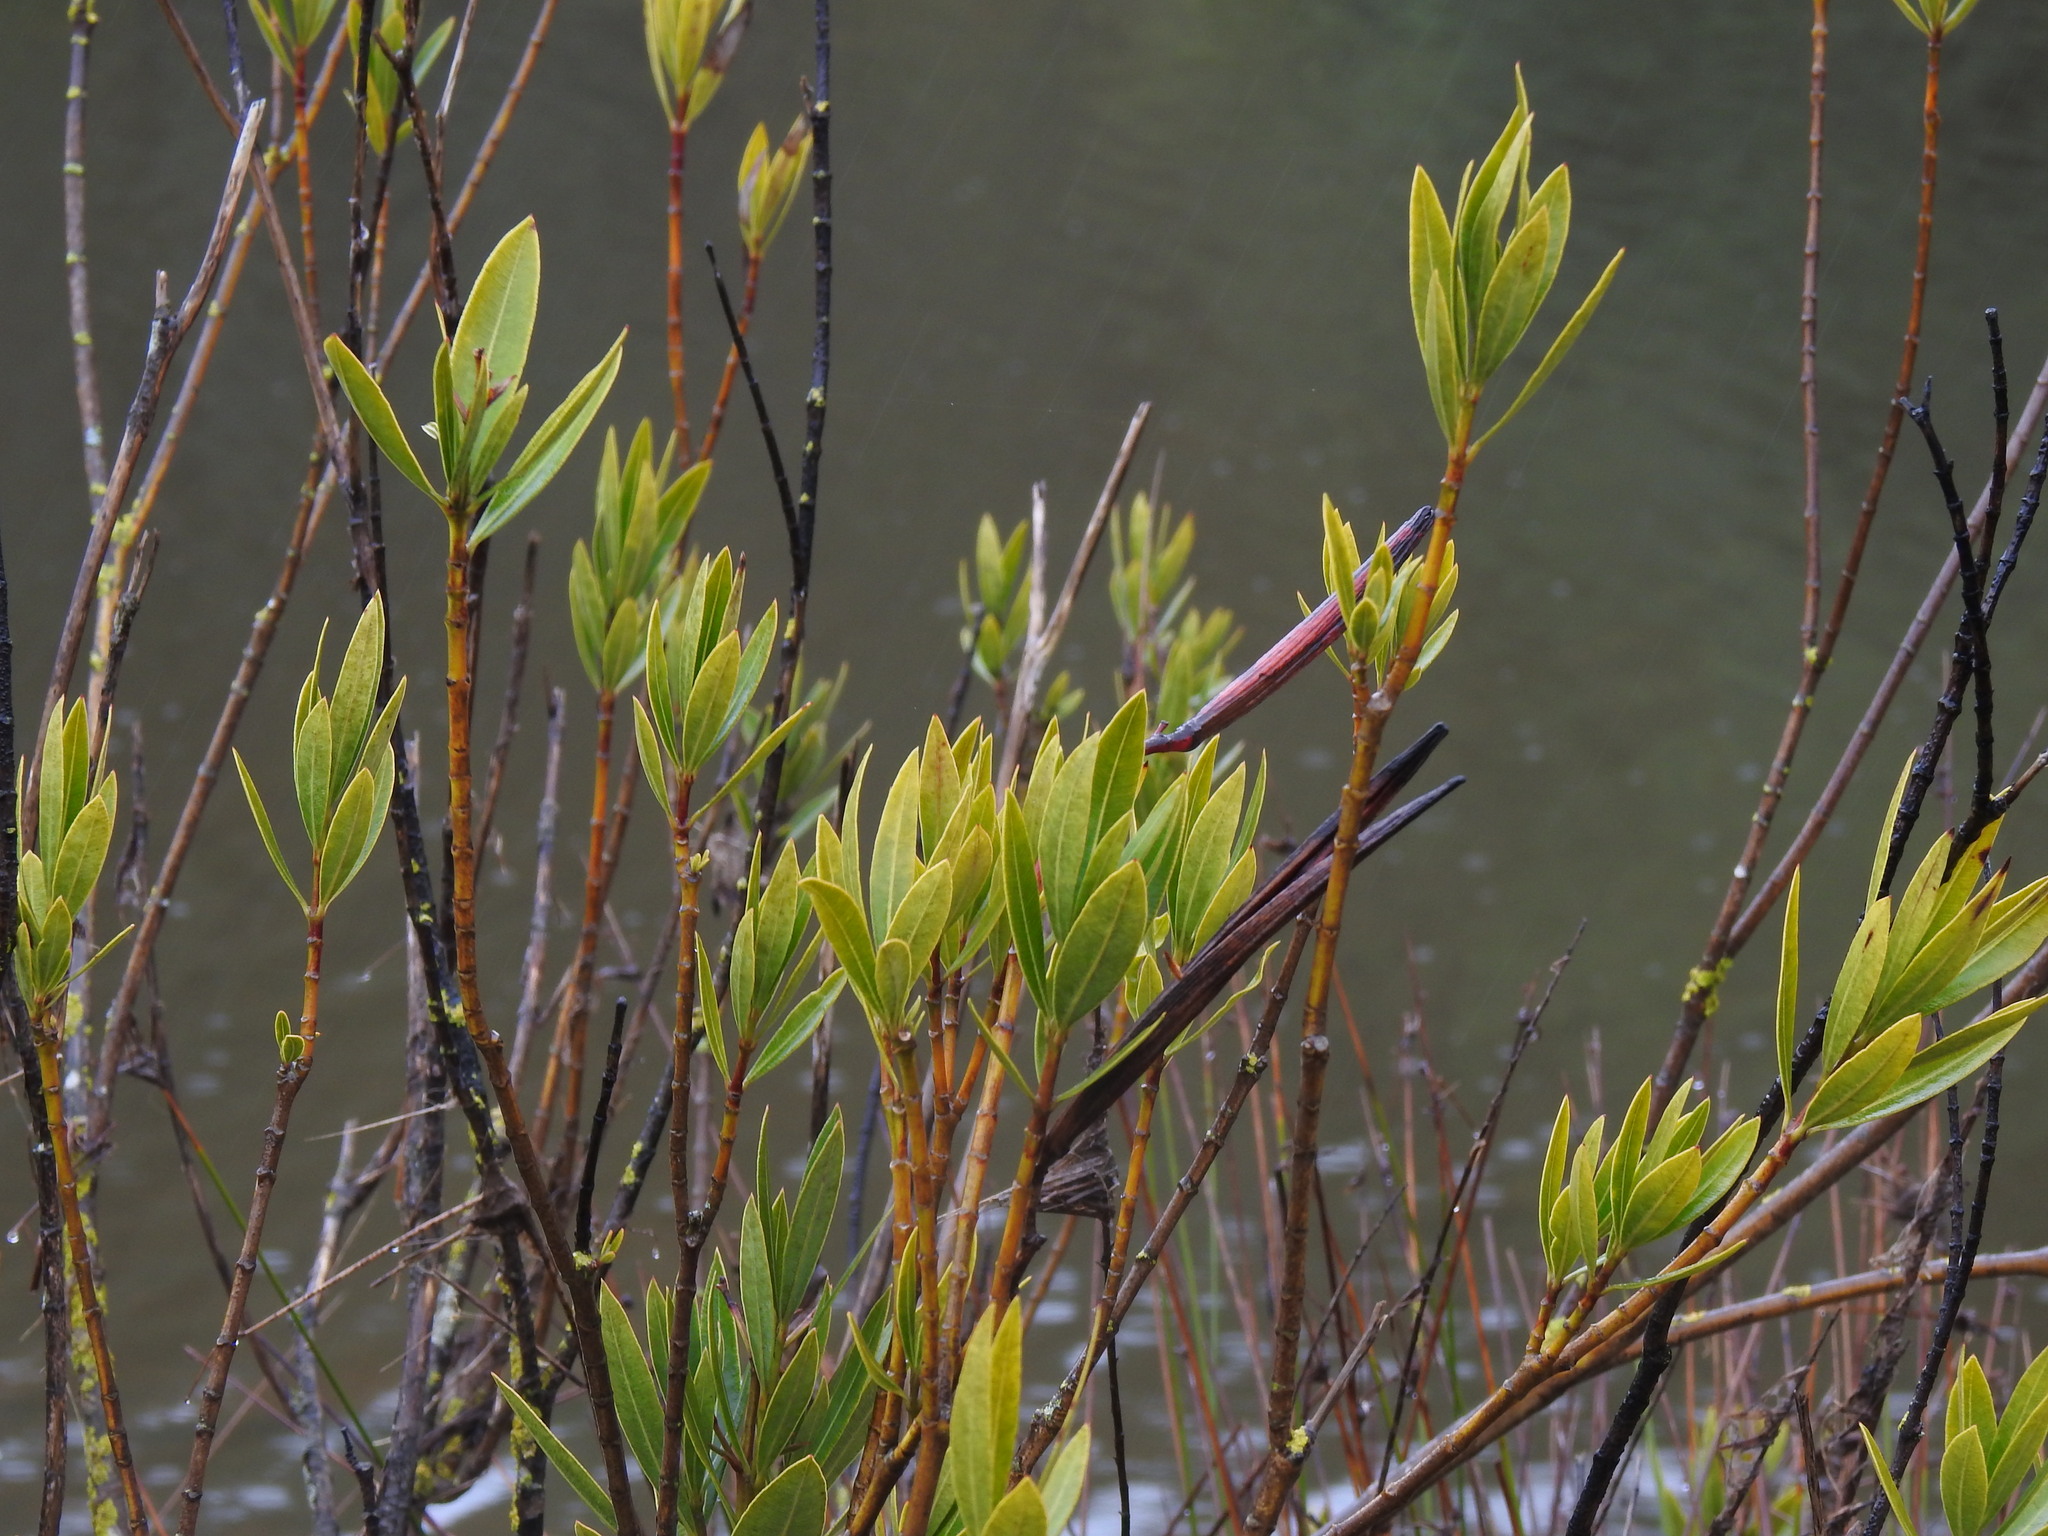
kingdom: Plantae
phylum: Tracheophyta
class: Magnoliopsida
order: Gentianales
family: Apocynaceae
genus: Nerium
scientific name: Nerium oleander
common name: Oleander
